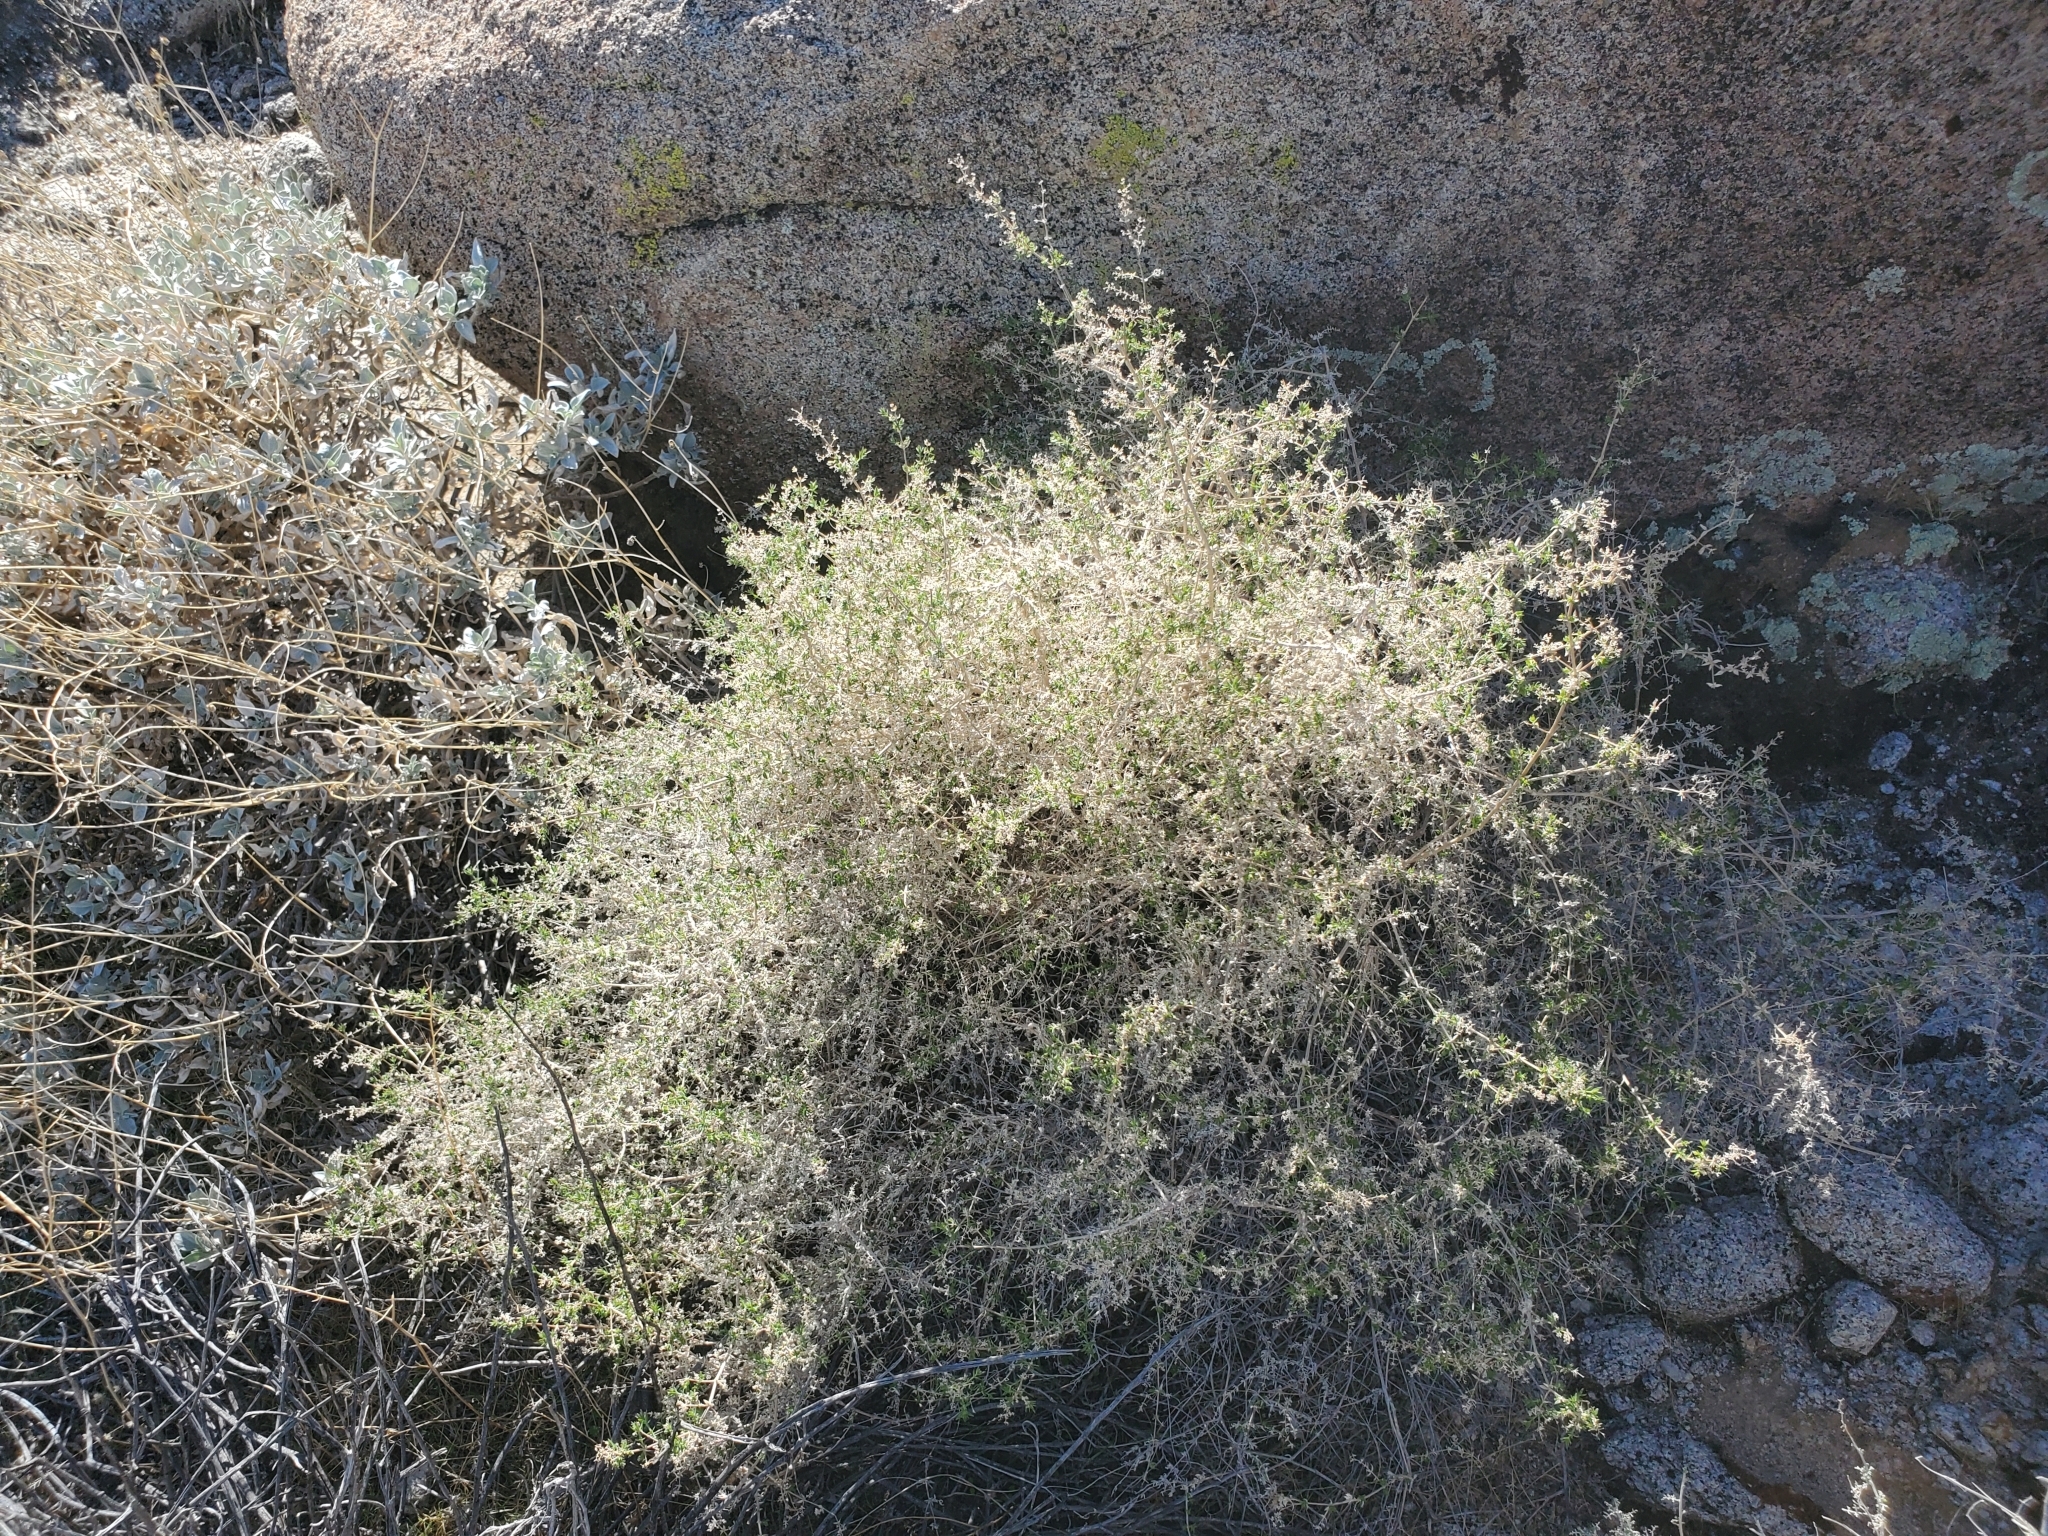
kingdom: Plantae
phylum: Tracheophyta
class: Magnoliopsida
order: Gentianales
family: Rubiaceae
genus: Galium
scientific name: Galium stellatum
